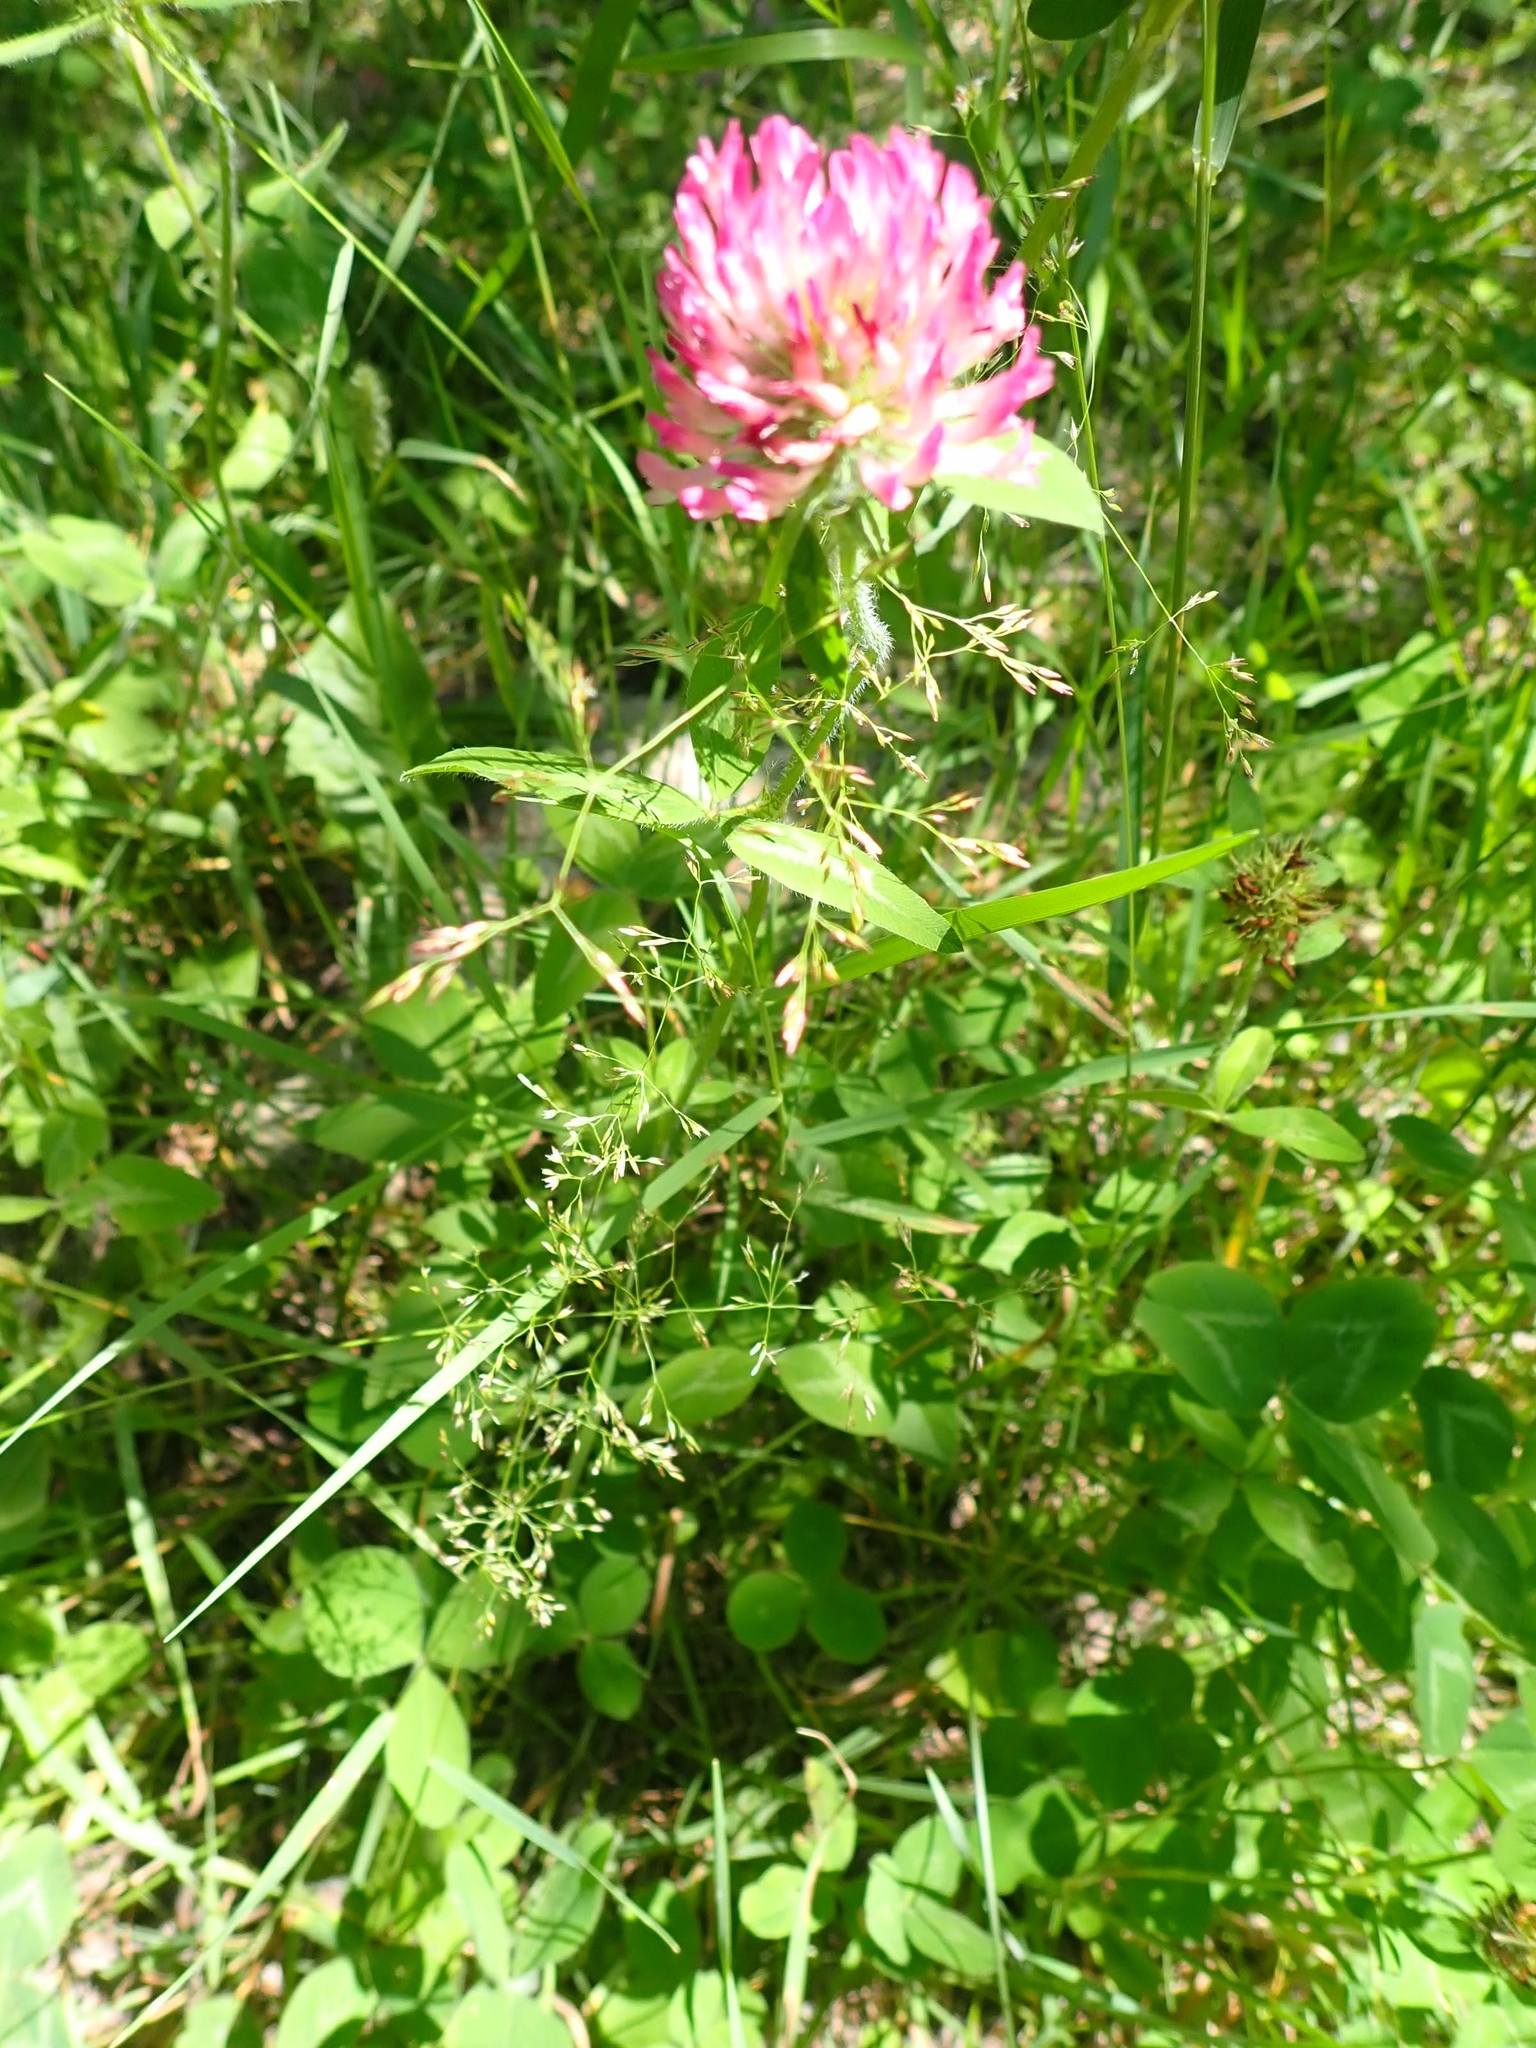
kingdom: Plantae
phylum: Tracheophyta
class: Magnoliopsida
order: Fabales
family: Fabaceae
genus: Trifolium
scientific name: Trifolium pratense
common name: Red clover
